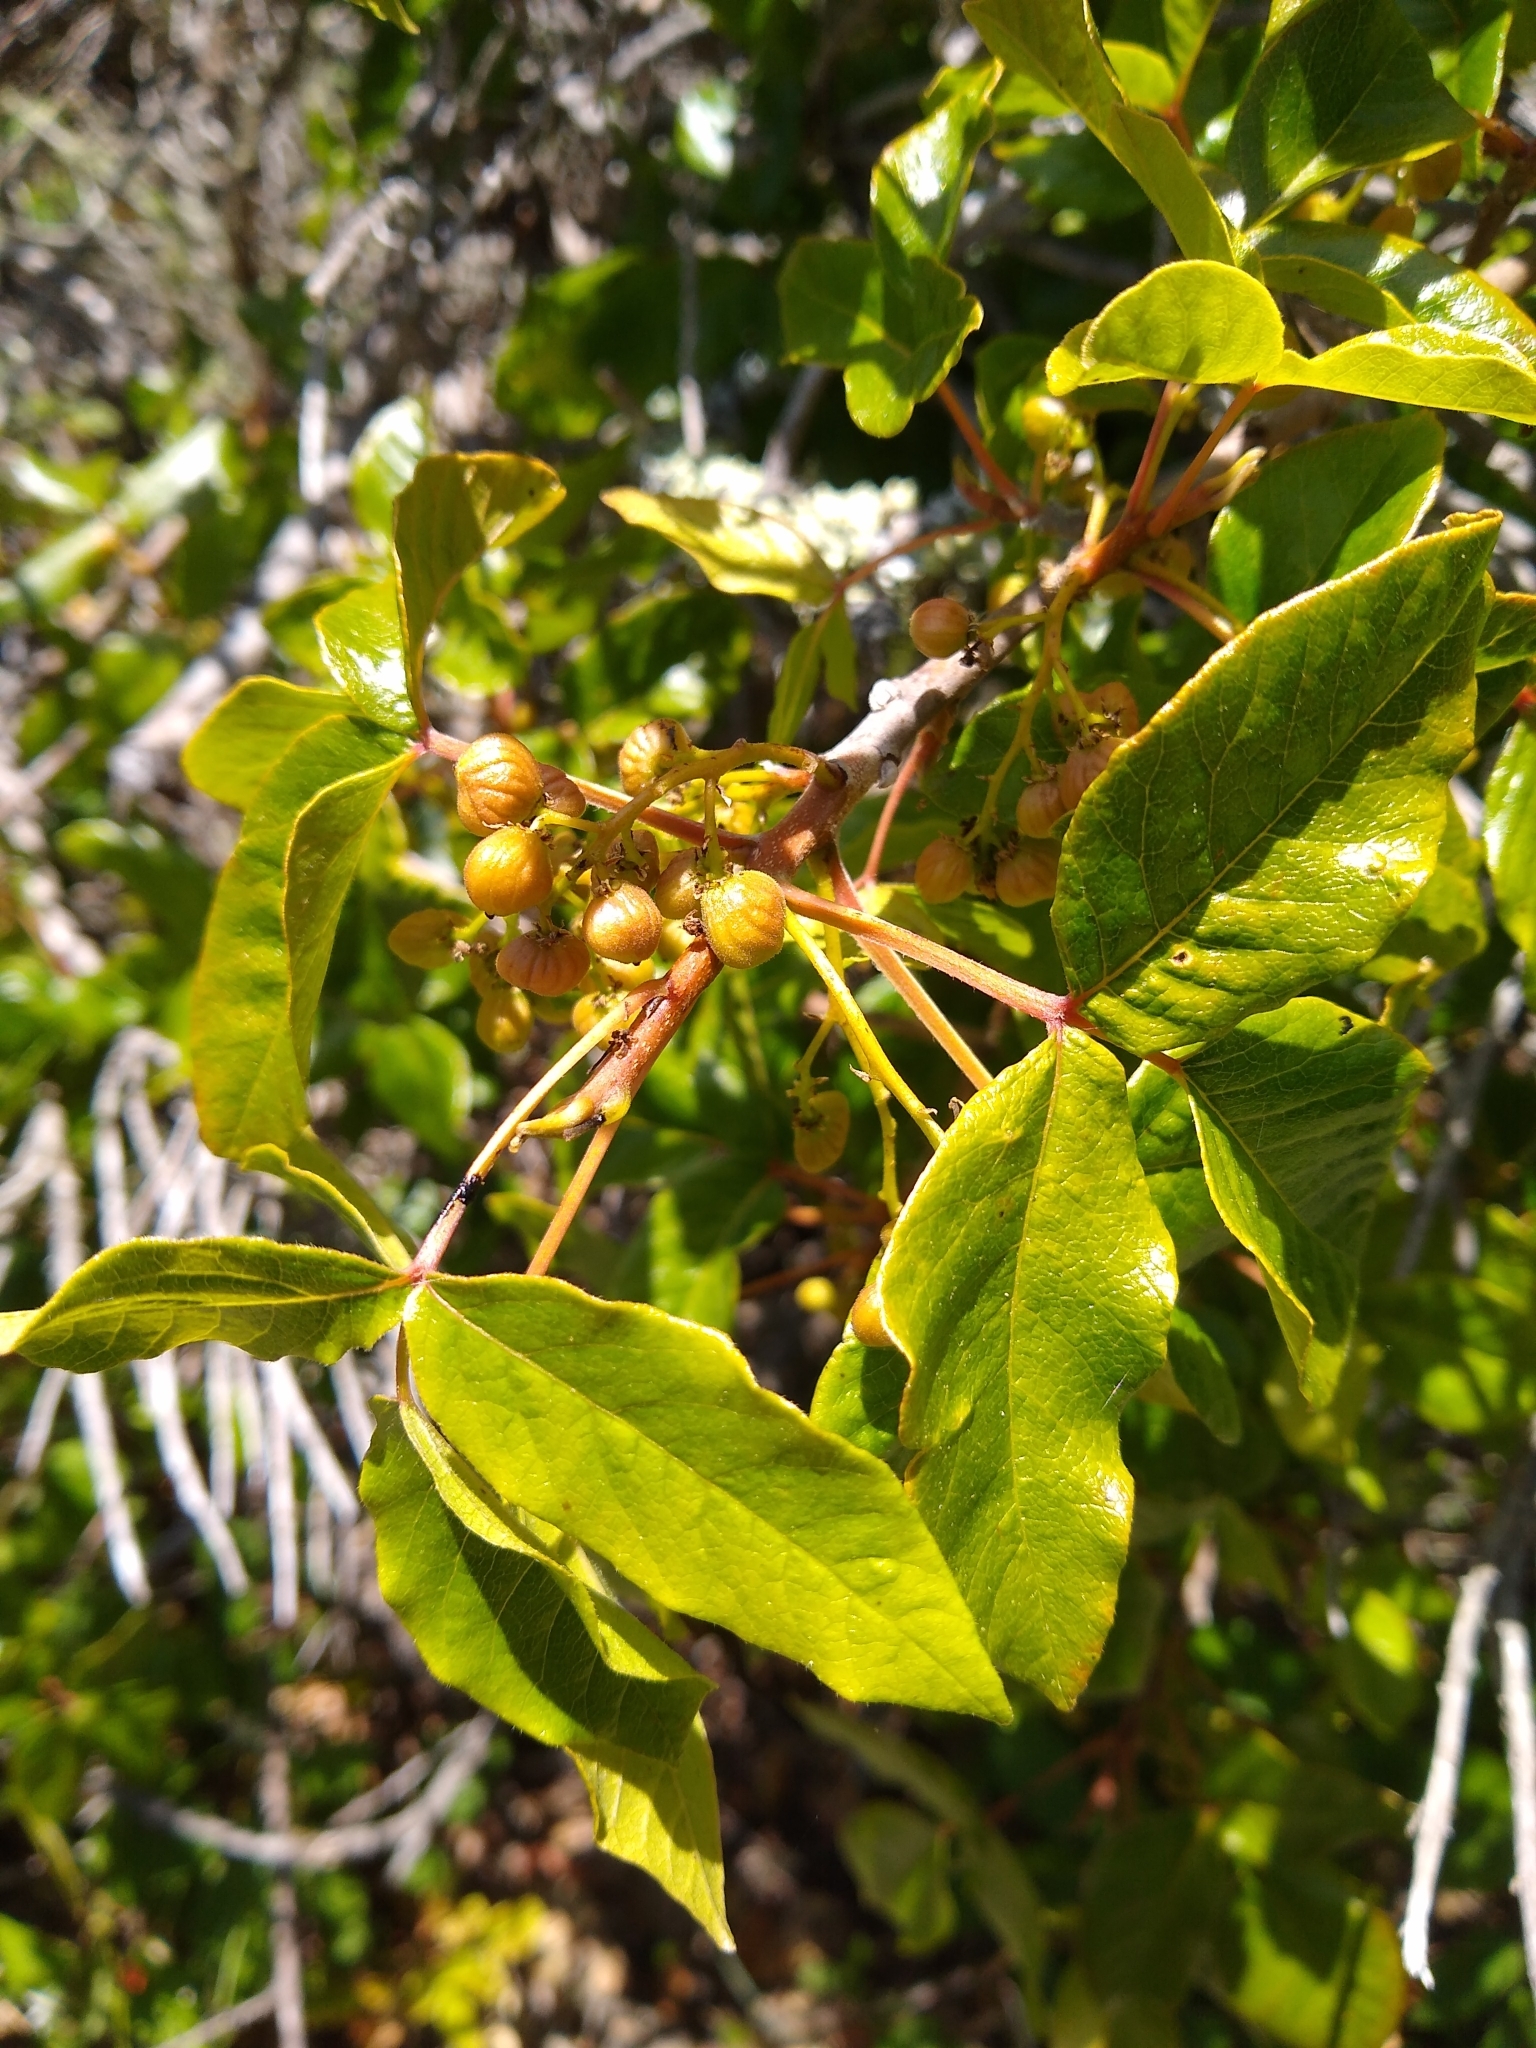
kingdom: Plantae
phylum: Tracheophyta
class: Magnoliopsida
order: Sapindales
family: Anacardiaceae
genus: Toxicodendron
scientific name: Toxicodendron diversilobum
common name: Pacific poison-oak
